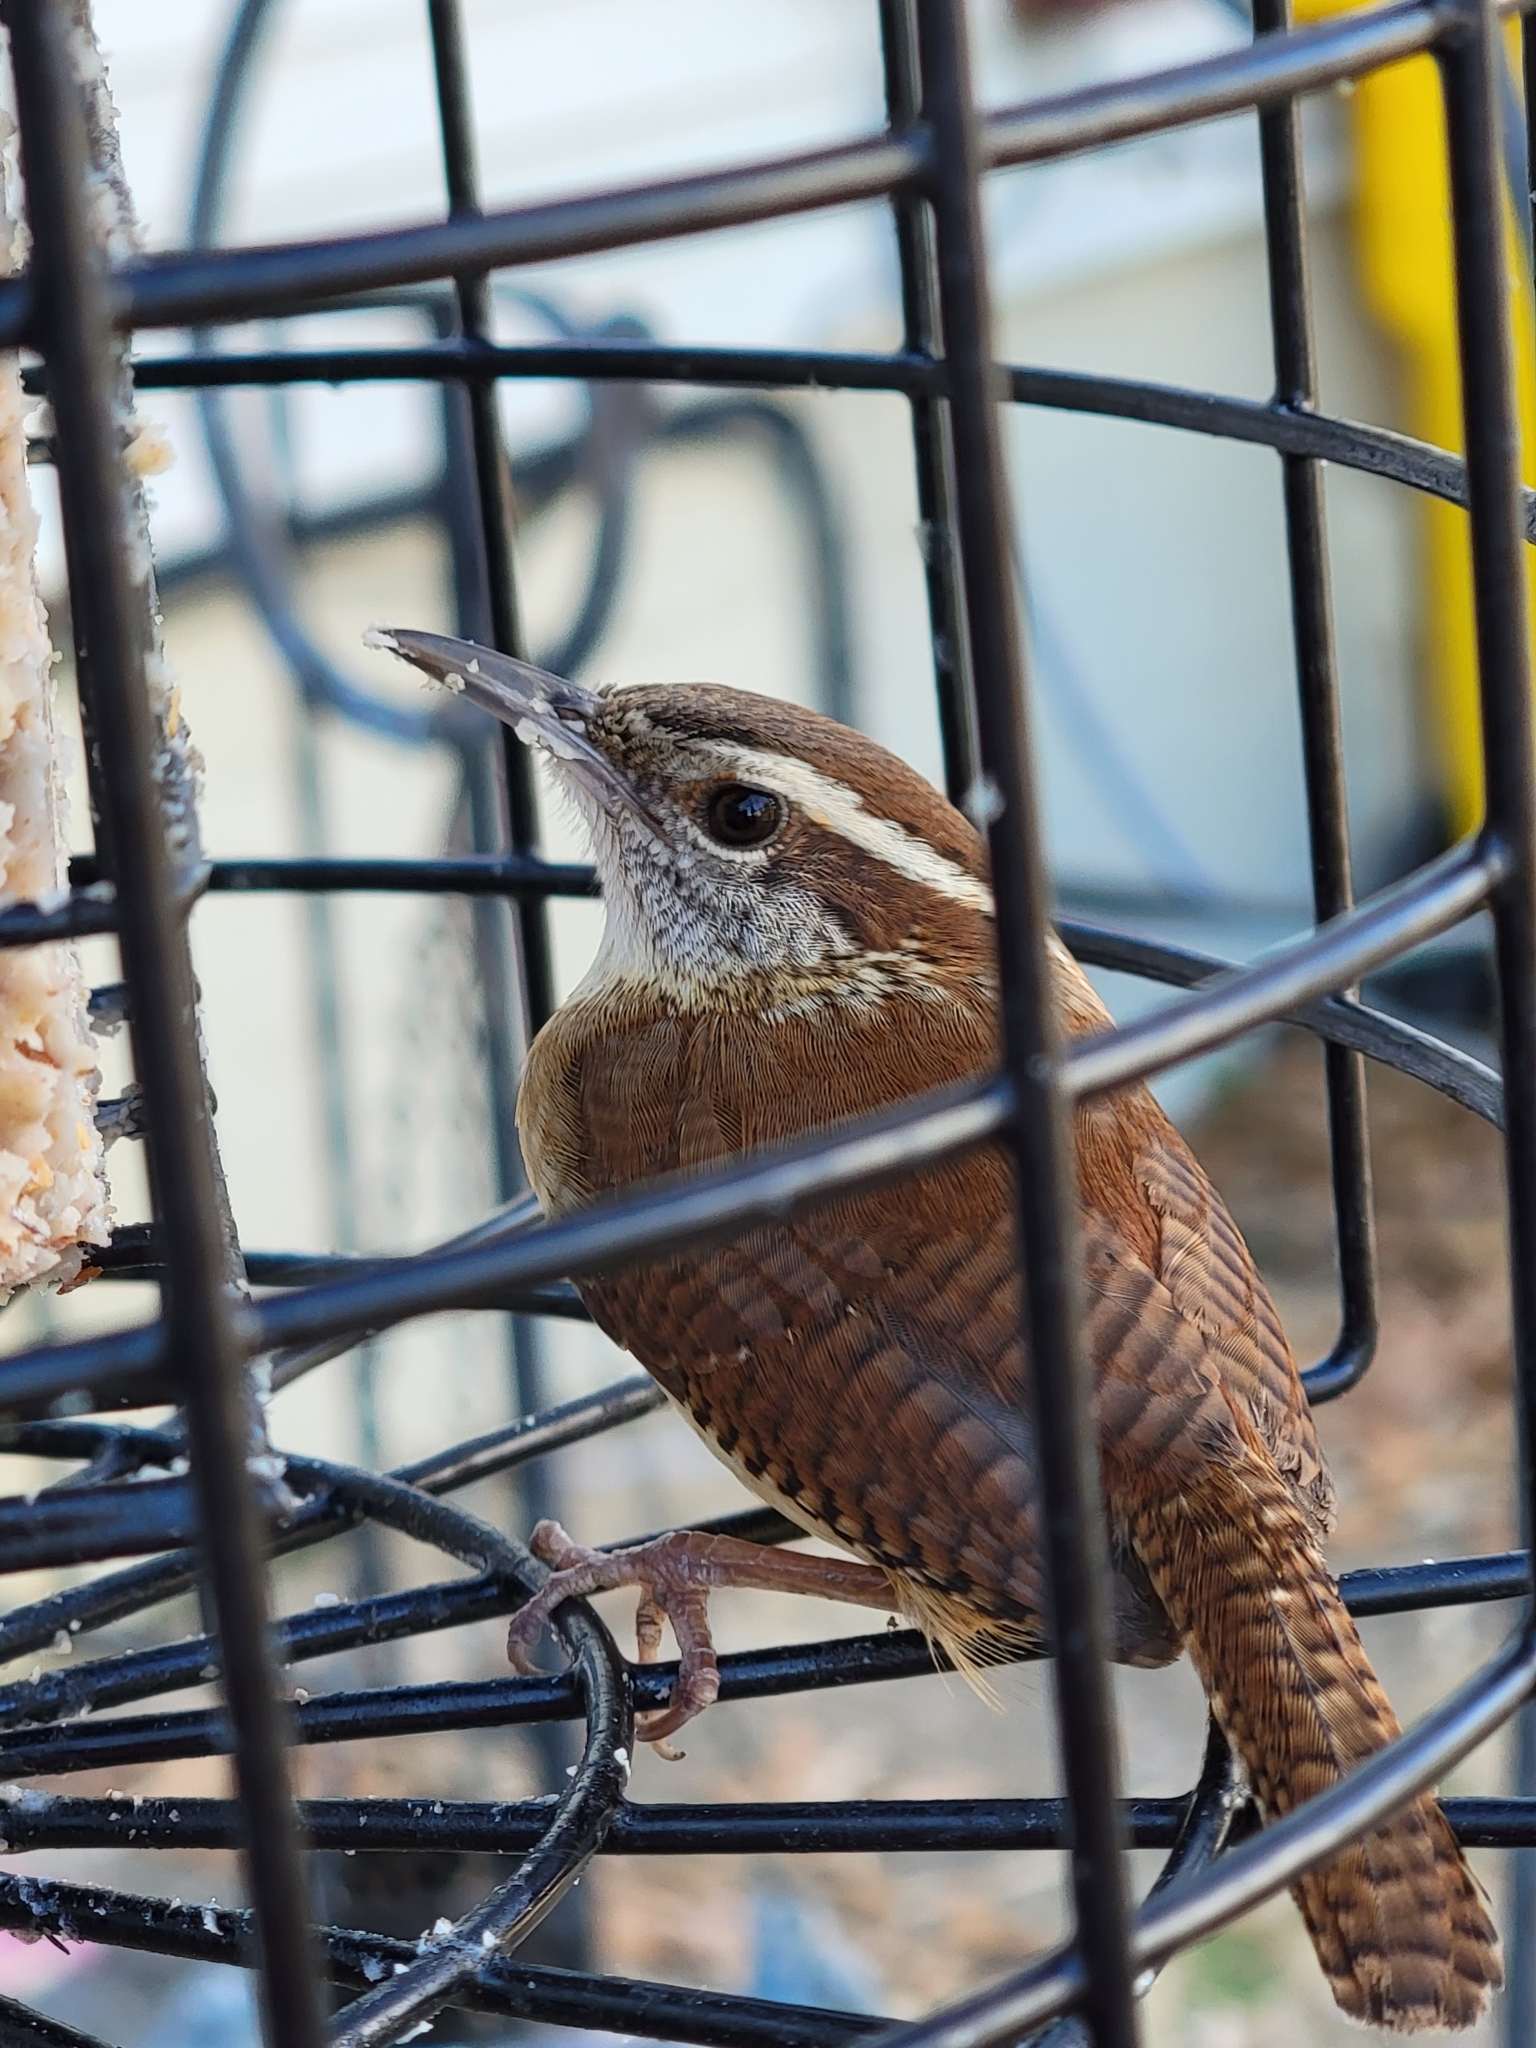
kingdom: Animalia
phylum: Chordata
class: Aves
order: Passeriformes
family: Troglodytidae
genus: Thryothorus
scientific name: Thryothorus ludovicianus
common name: Carolina wren
